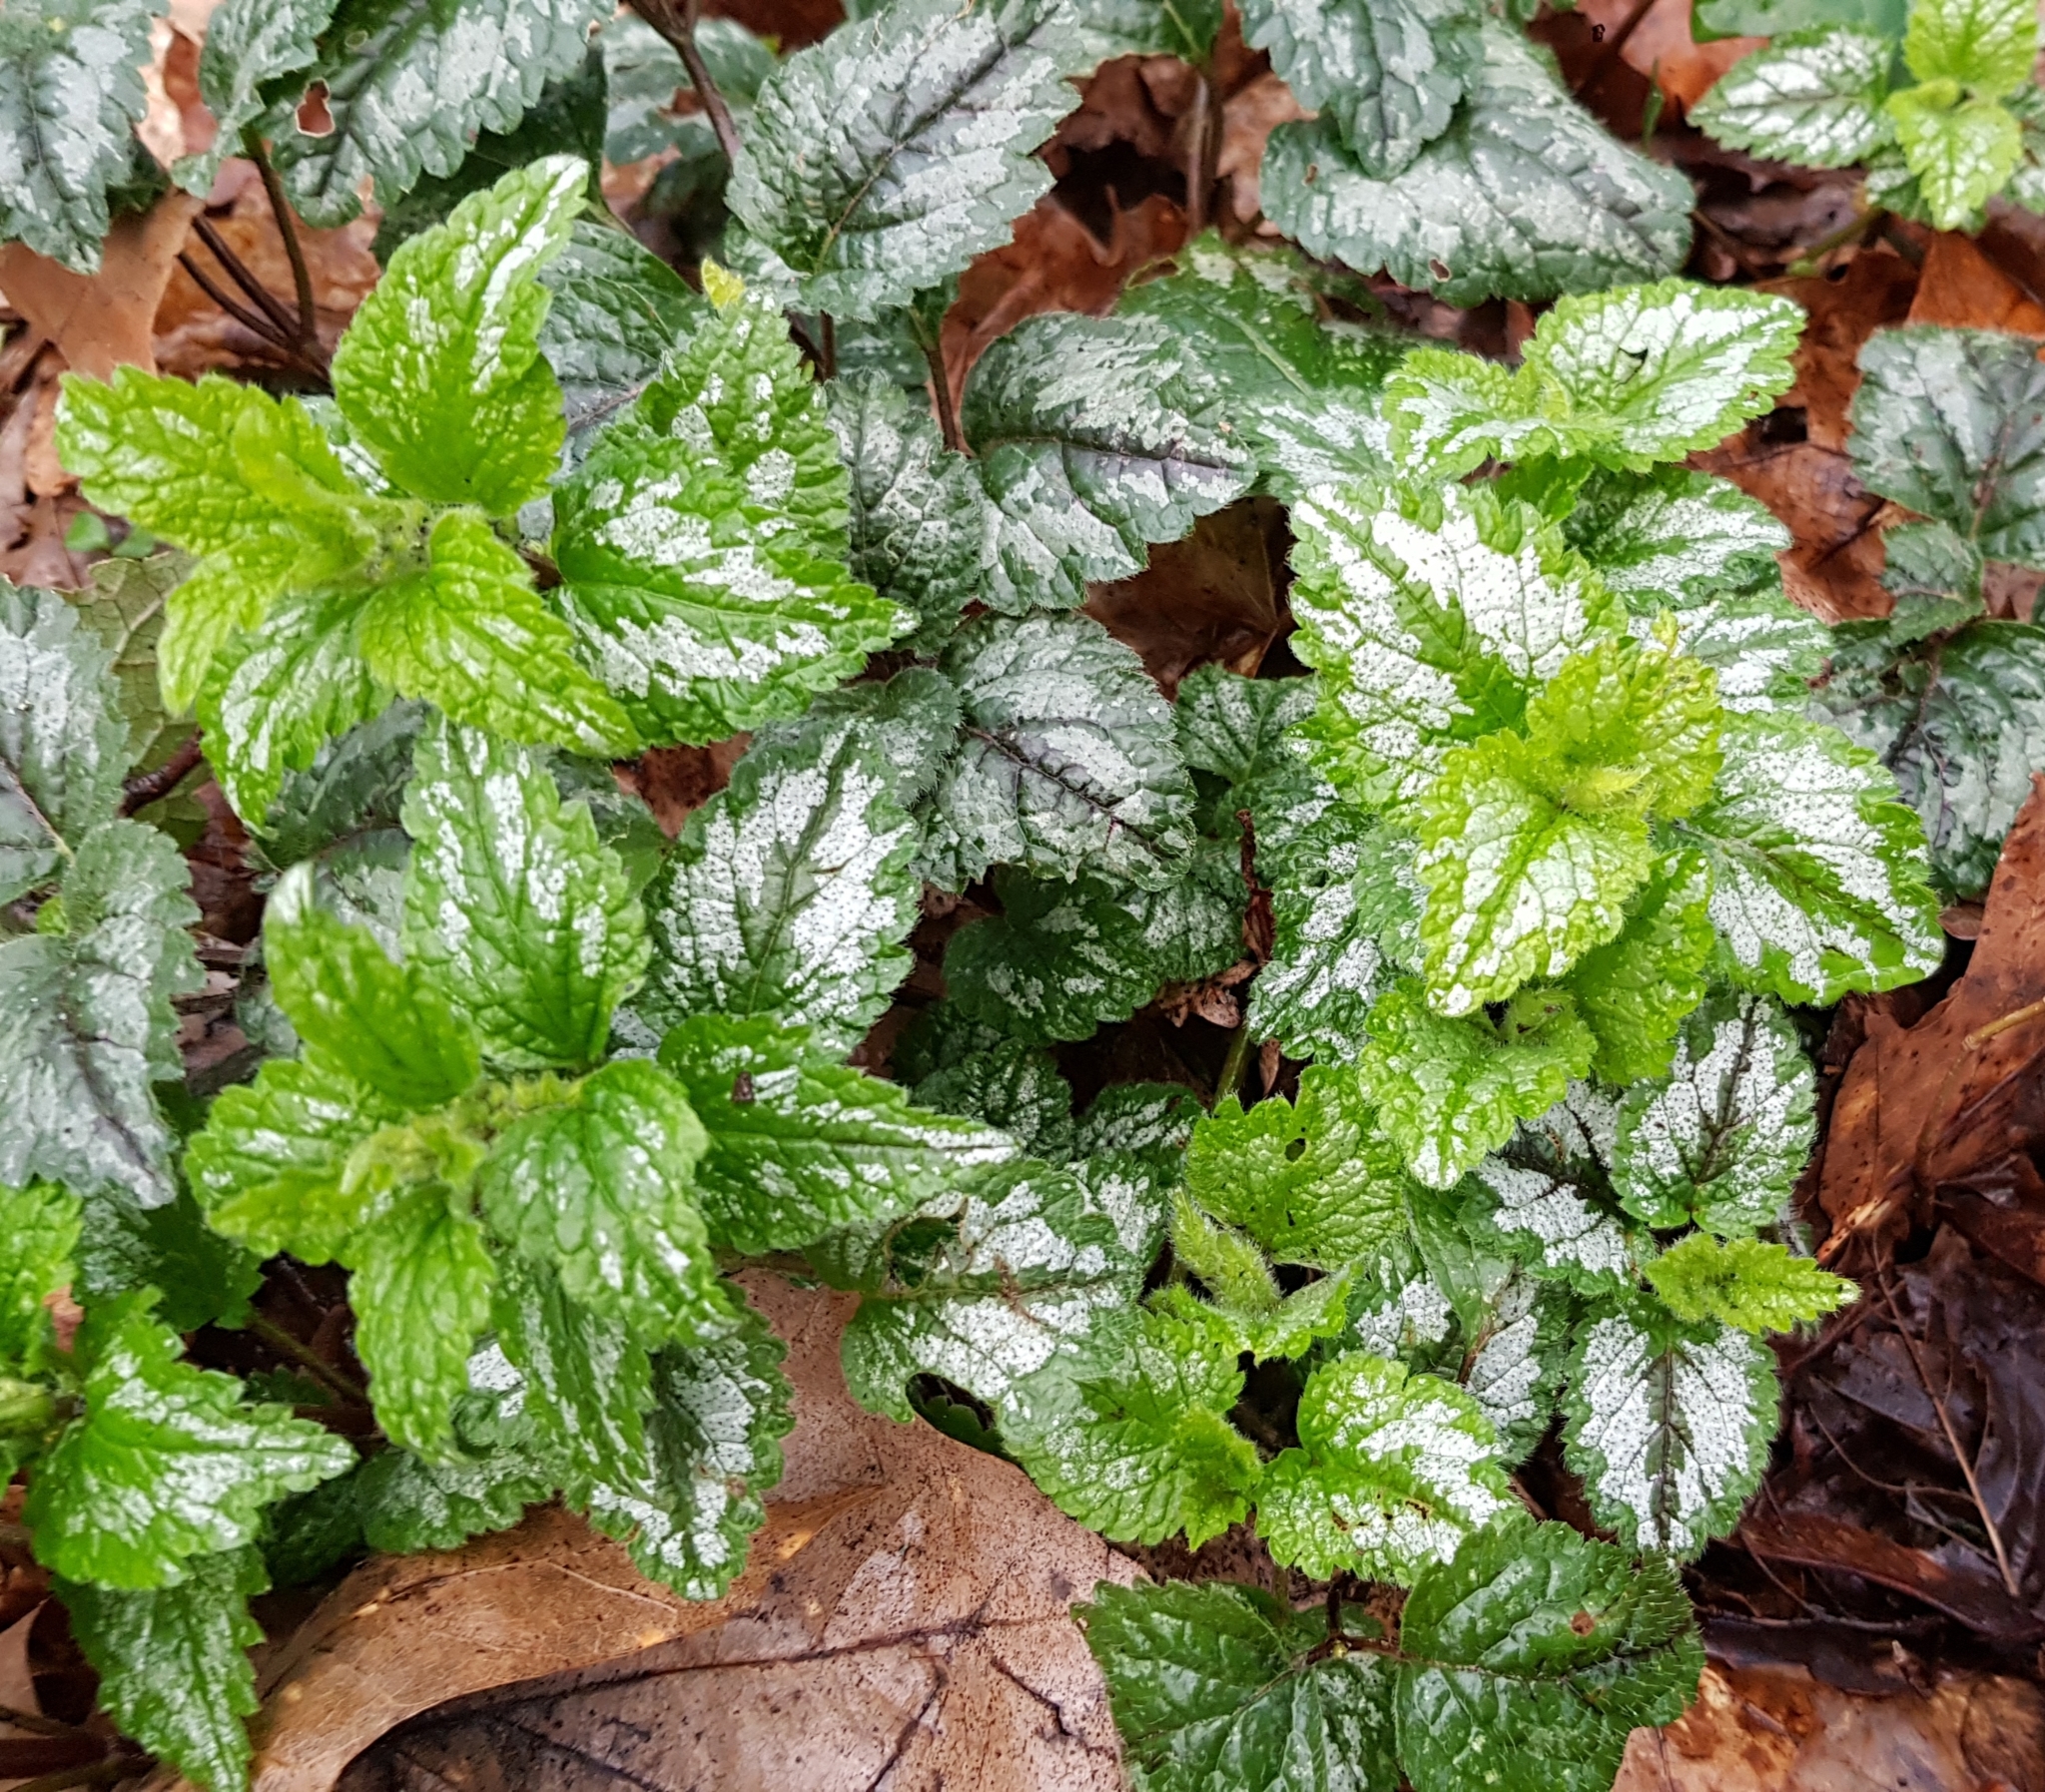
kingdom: Plantae
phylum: Tracheophyta
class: Magnoliopsida
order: Lamiales
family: Lamiaceae
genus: Lamium
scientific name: Lamium galeobdolon
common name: Yellow archangel
